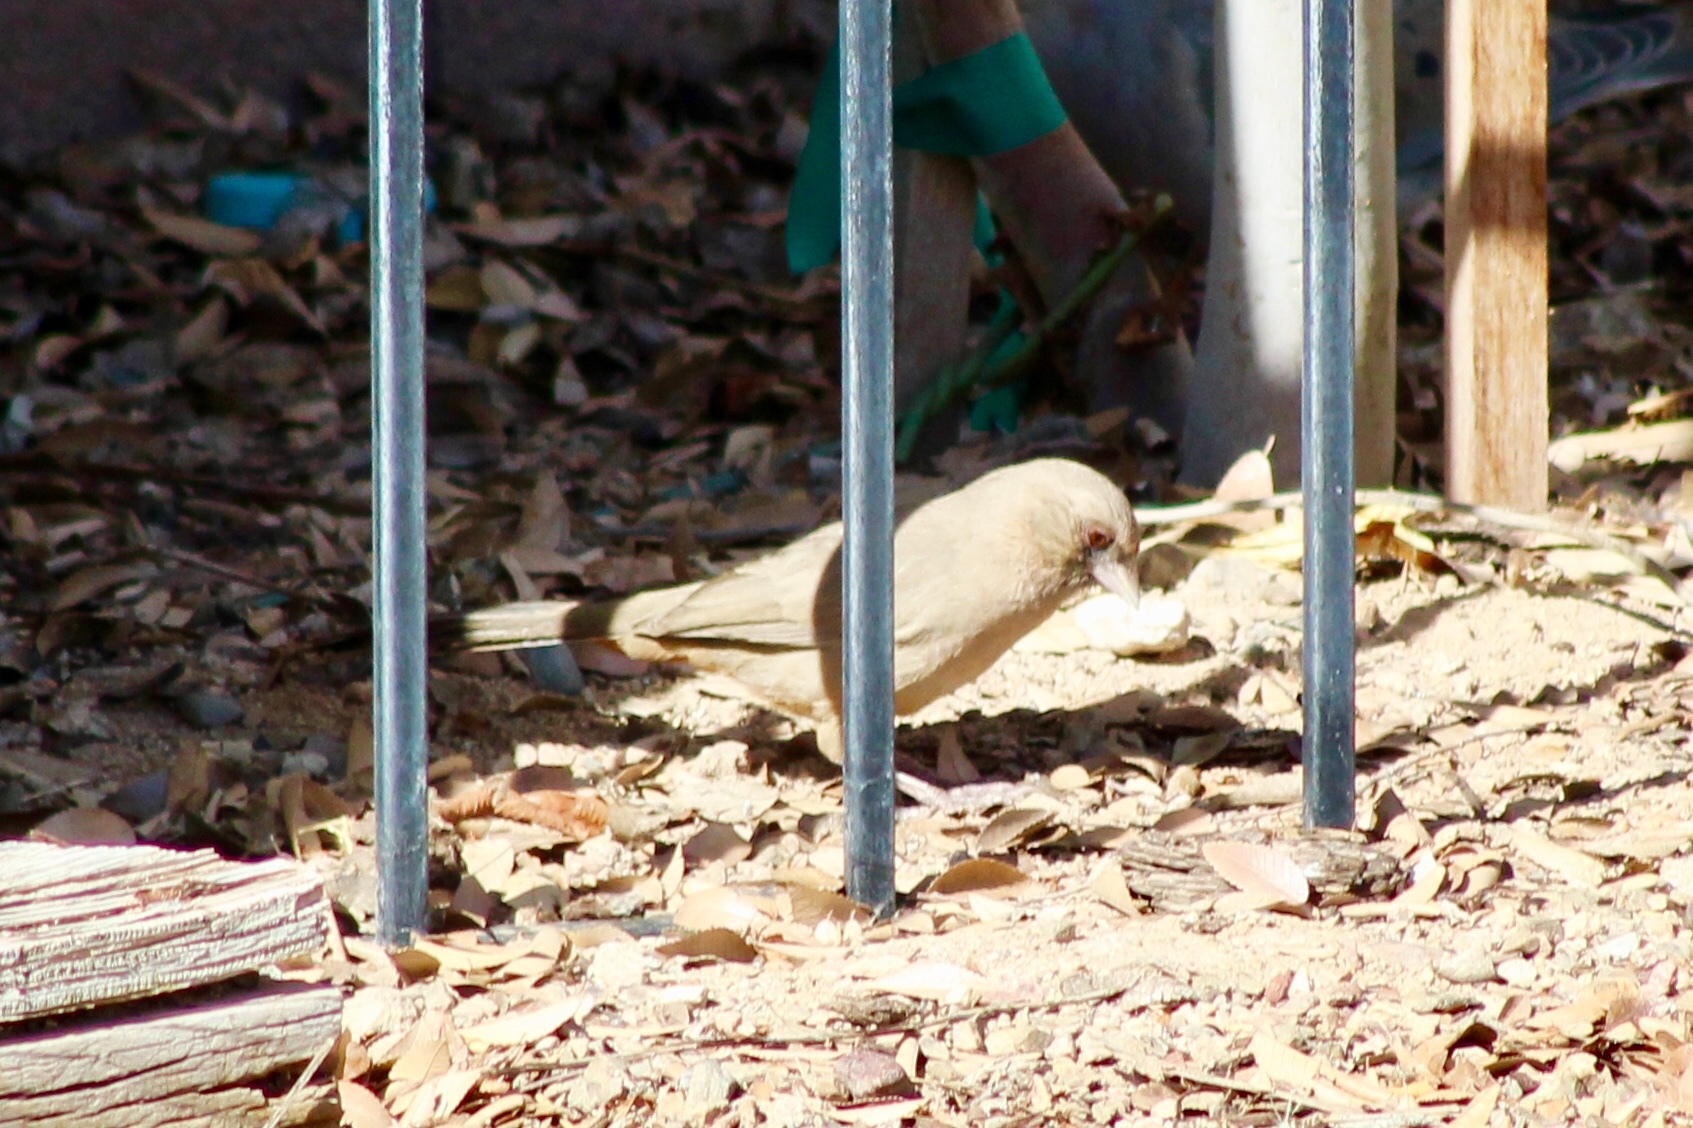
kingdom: Animalia
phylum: Chordata
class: Aves
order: Passeriformes
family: Passerellidae
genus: Melozone
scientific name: Melozone aberti
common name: Abert's towhee
